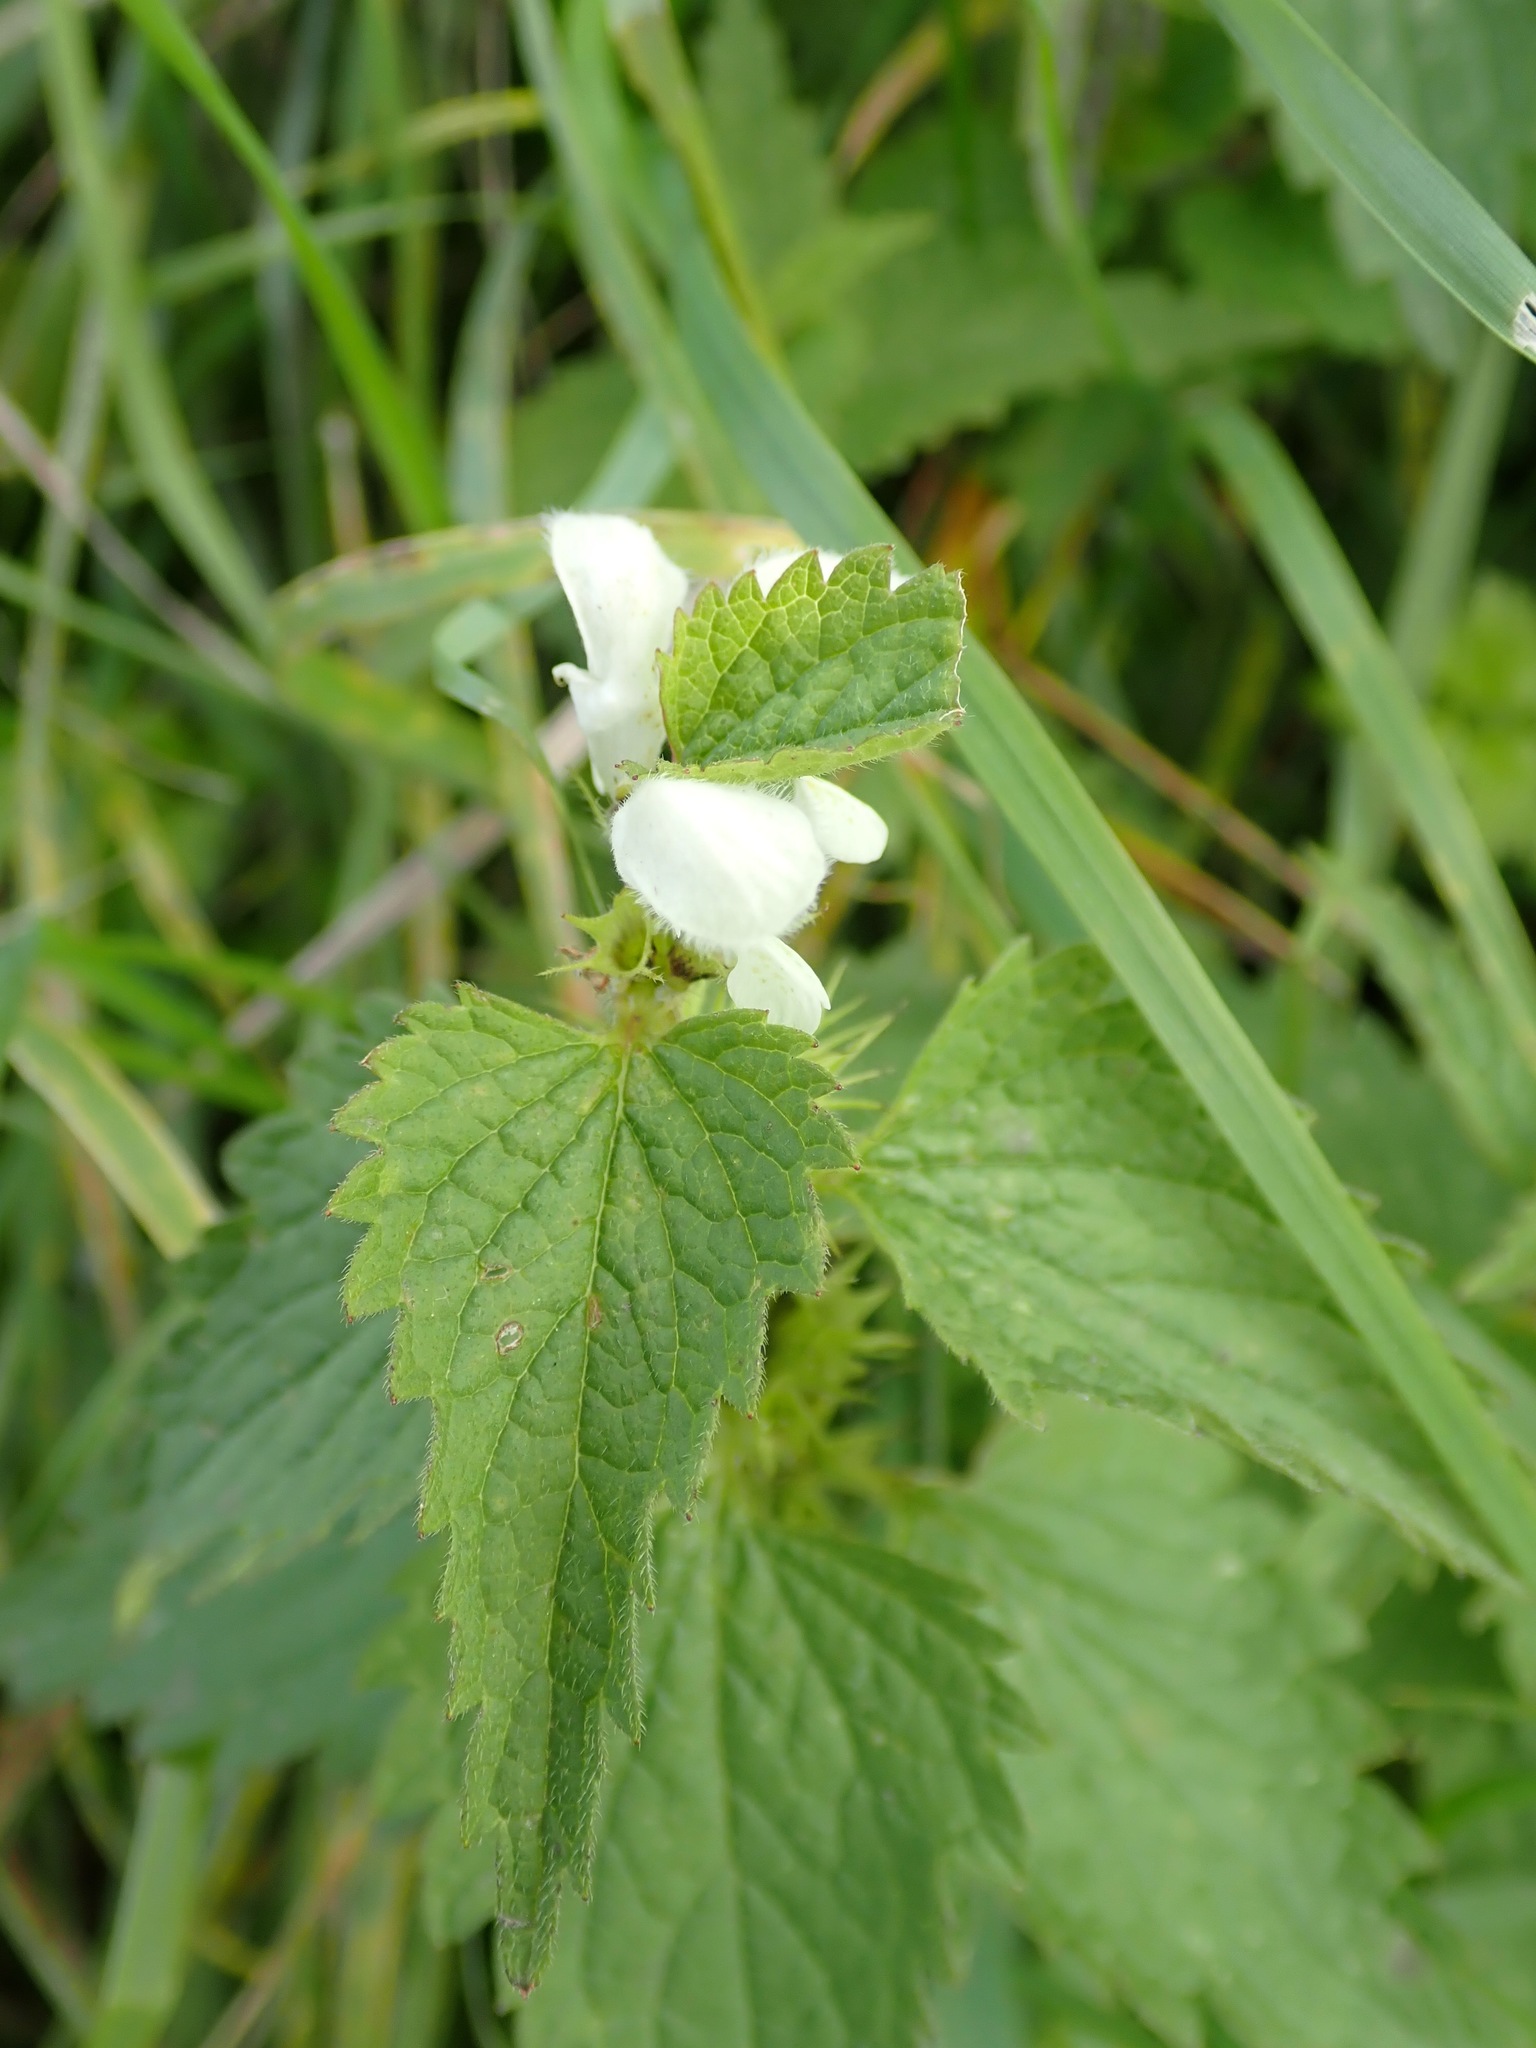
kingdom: Plantae
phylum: Tracheophyta
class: Magnoliopsida
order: Lamiales
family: Lamiaceae
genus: Lamium
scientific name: Lamium album
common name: White dead-nettle
